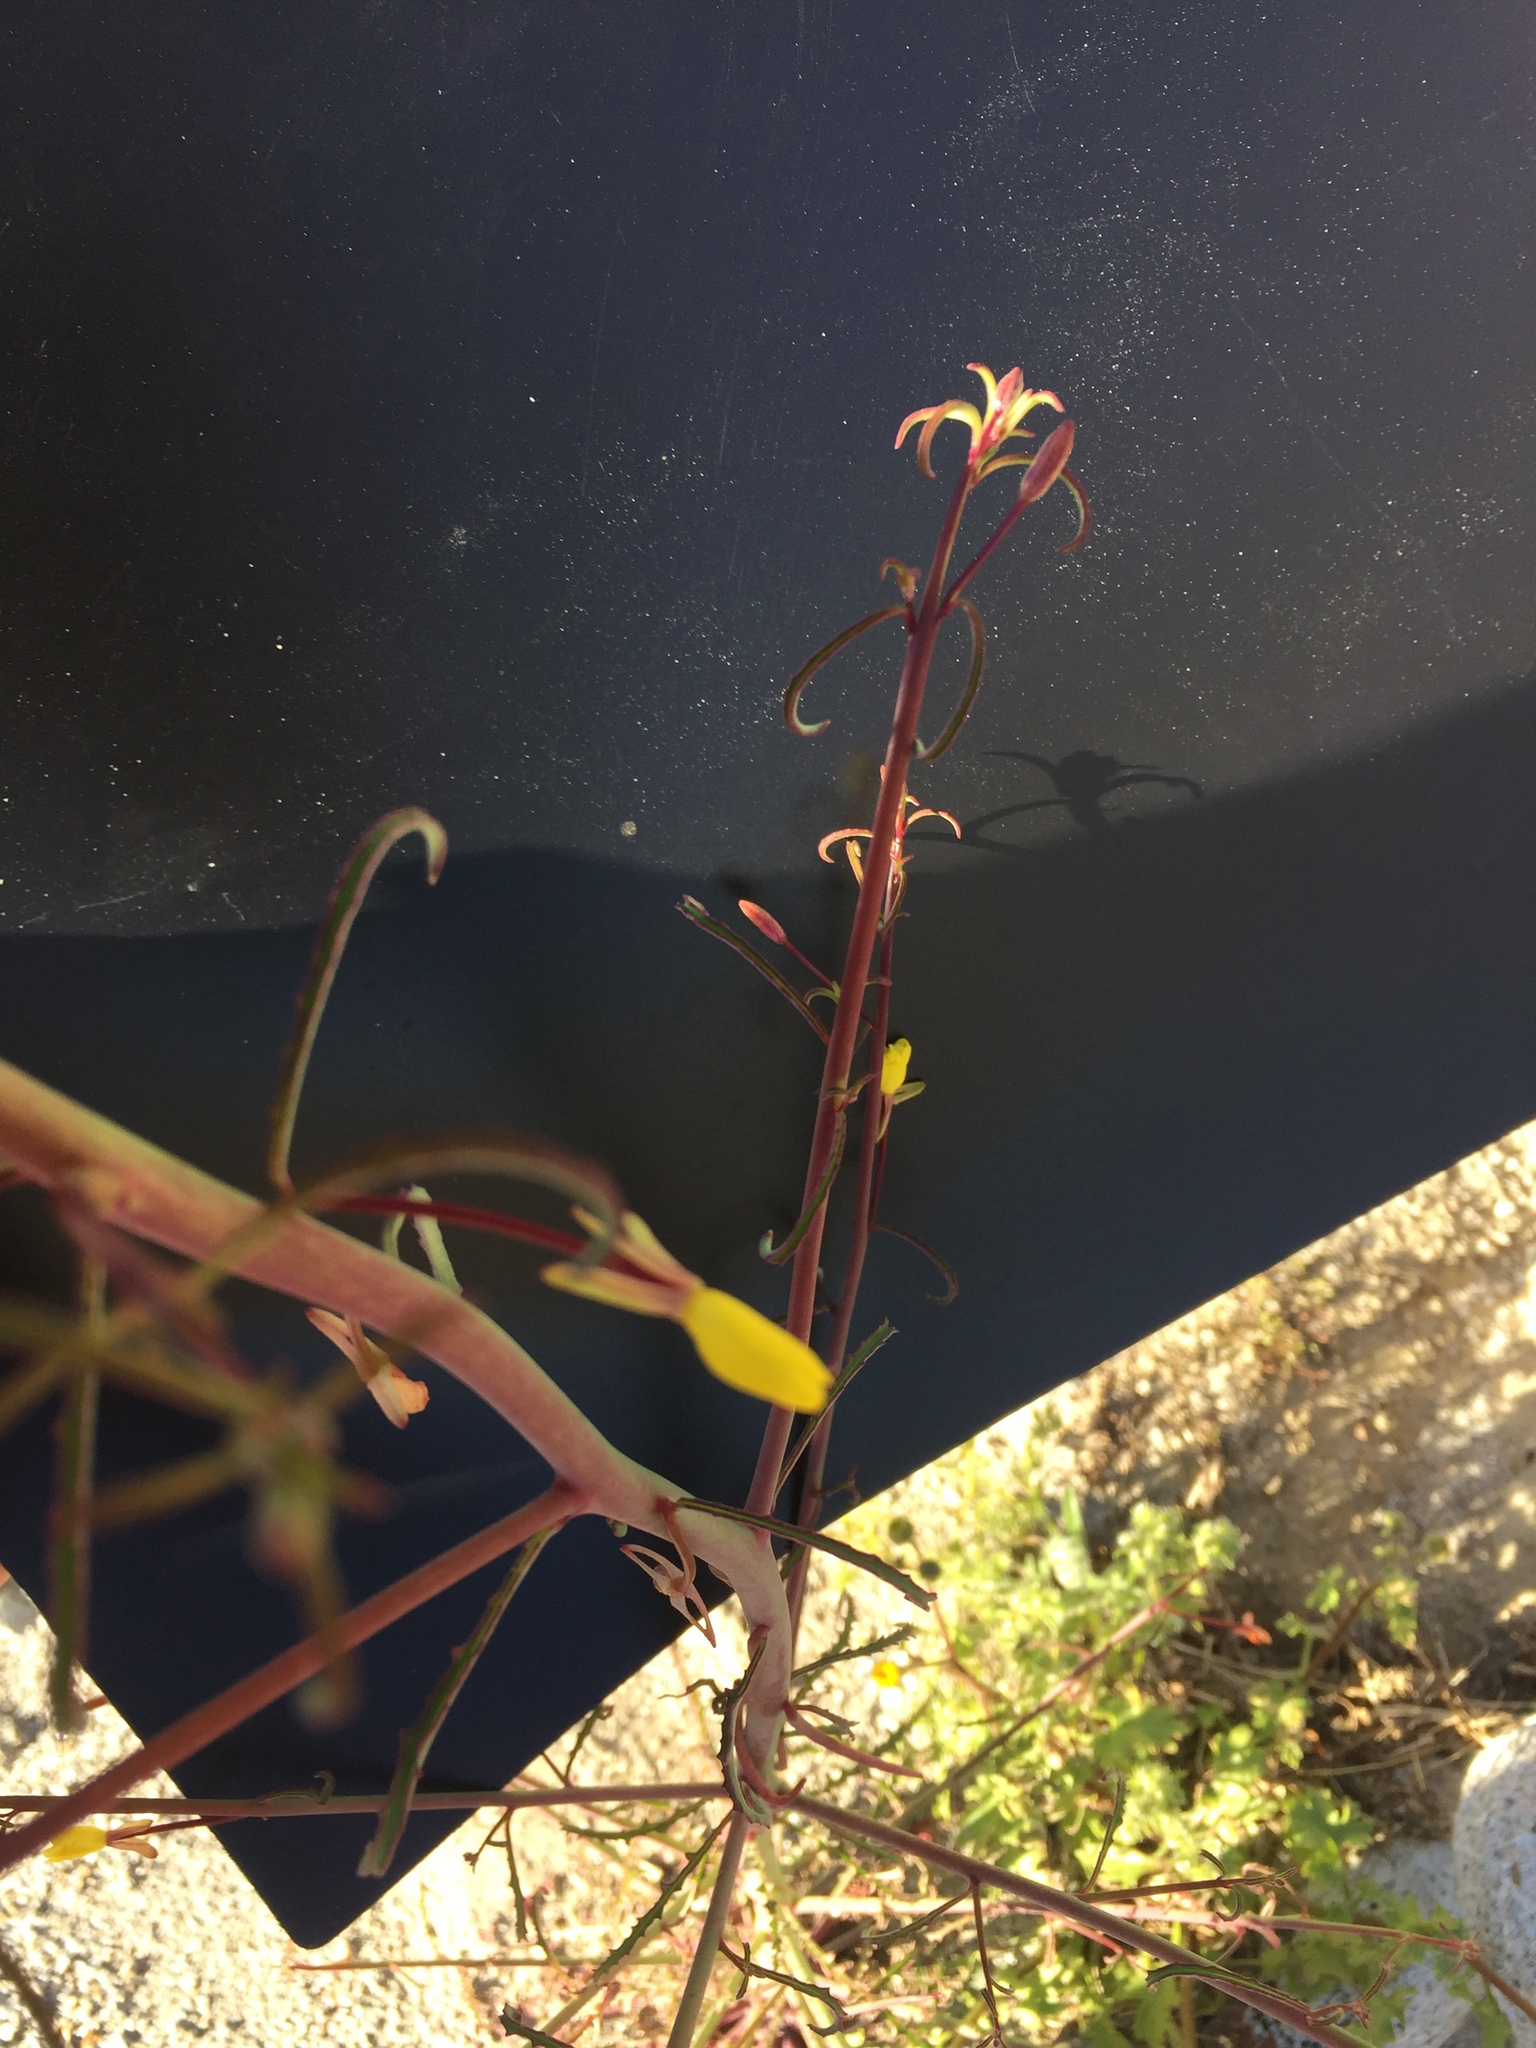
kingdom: Plantae
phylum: Tracheophyta
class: Magnoliopsida
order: Myrtales
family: Onagraceae
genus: Eulobus
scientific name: Eulobus californicus
